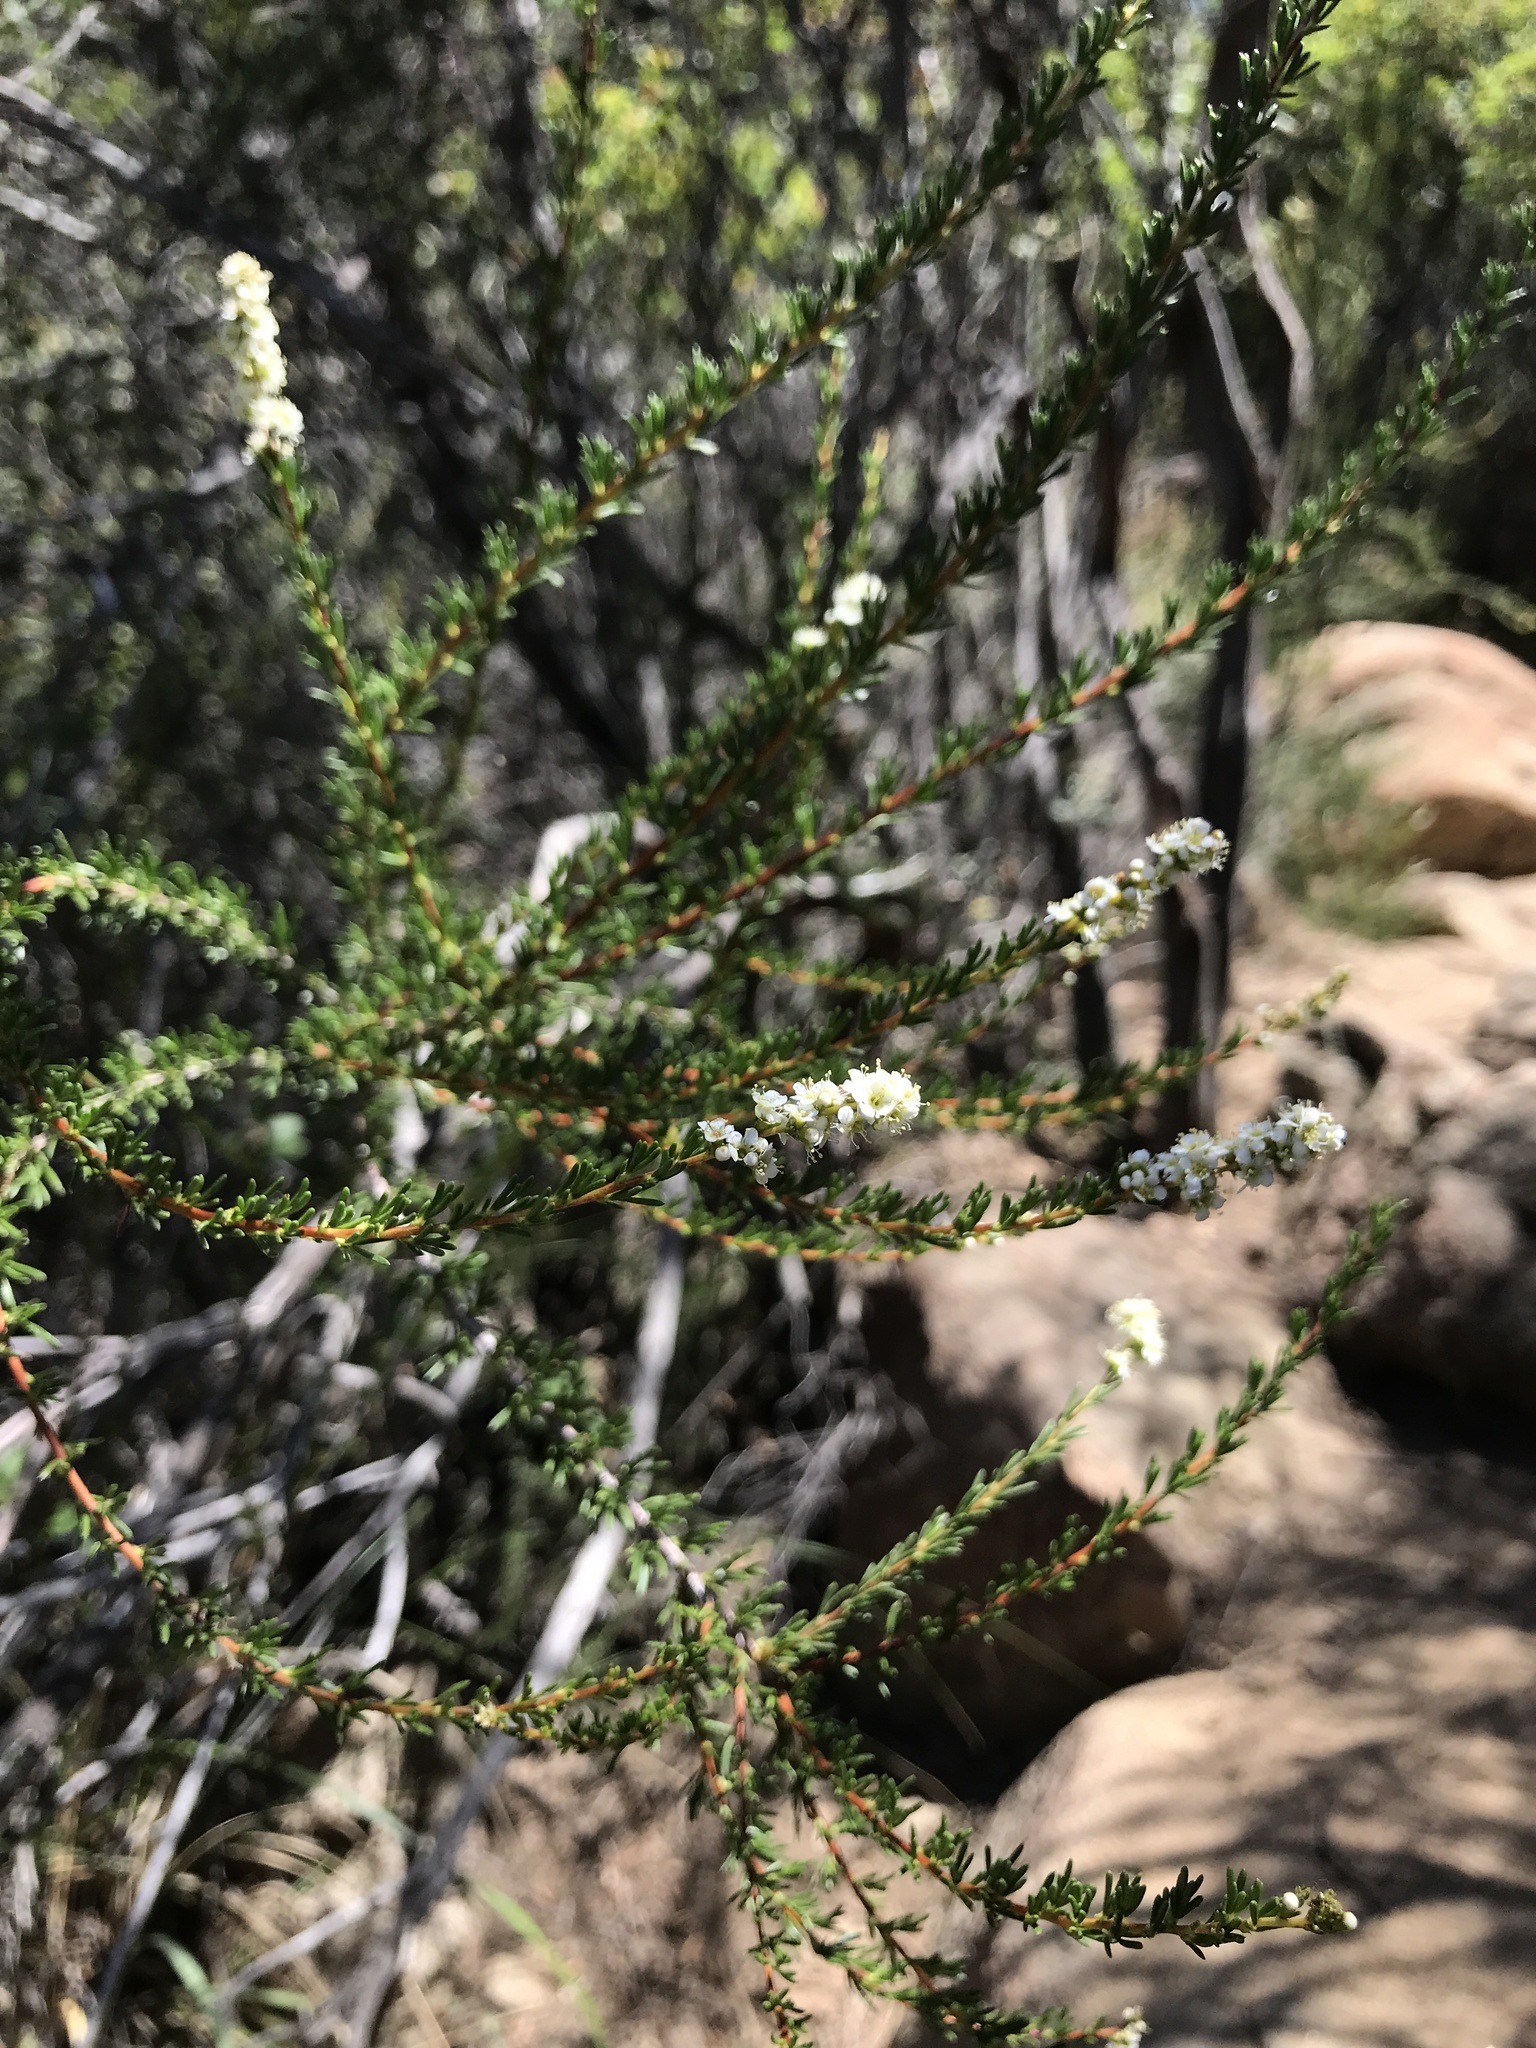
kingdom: Plantae
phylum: Tracheophyta
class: Magnoliopsida
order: Rosales
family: Rosaceae
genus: Adenostoma
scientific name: Adenostoma fasciculatum
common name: Chamise
